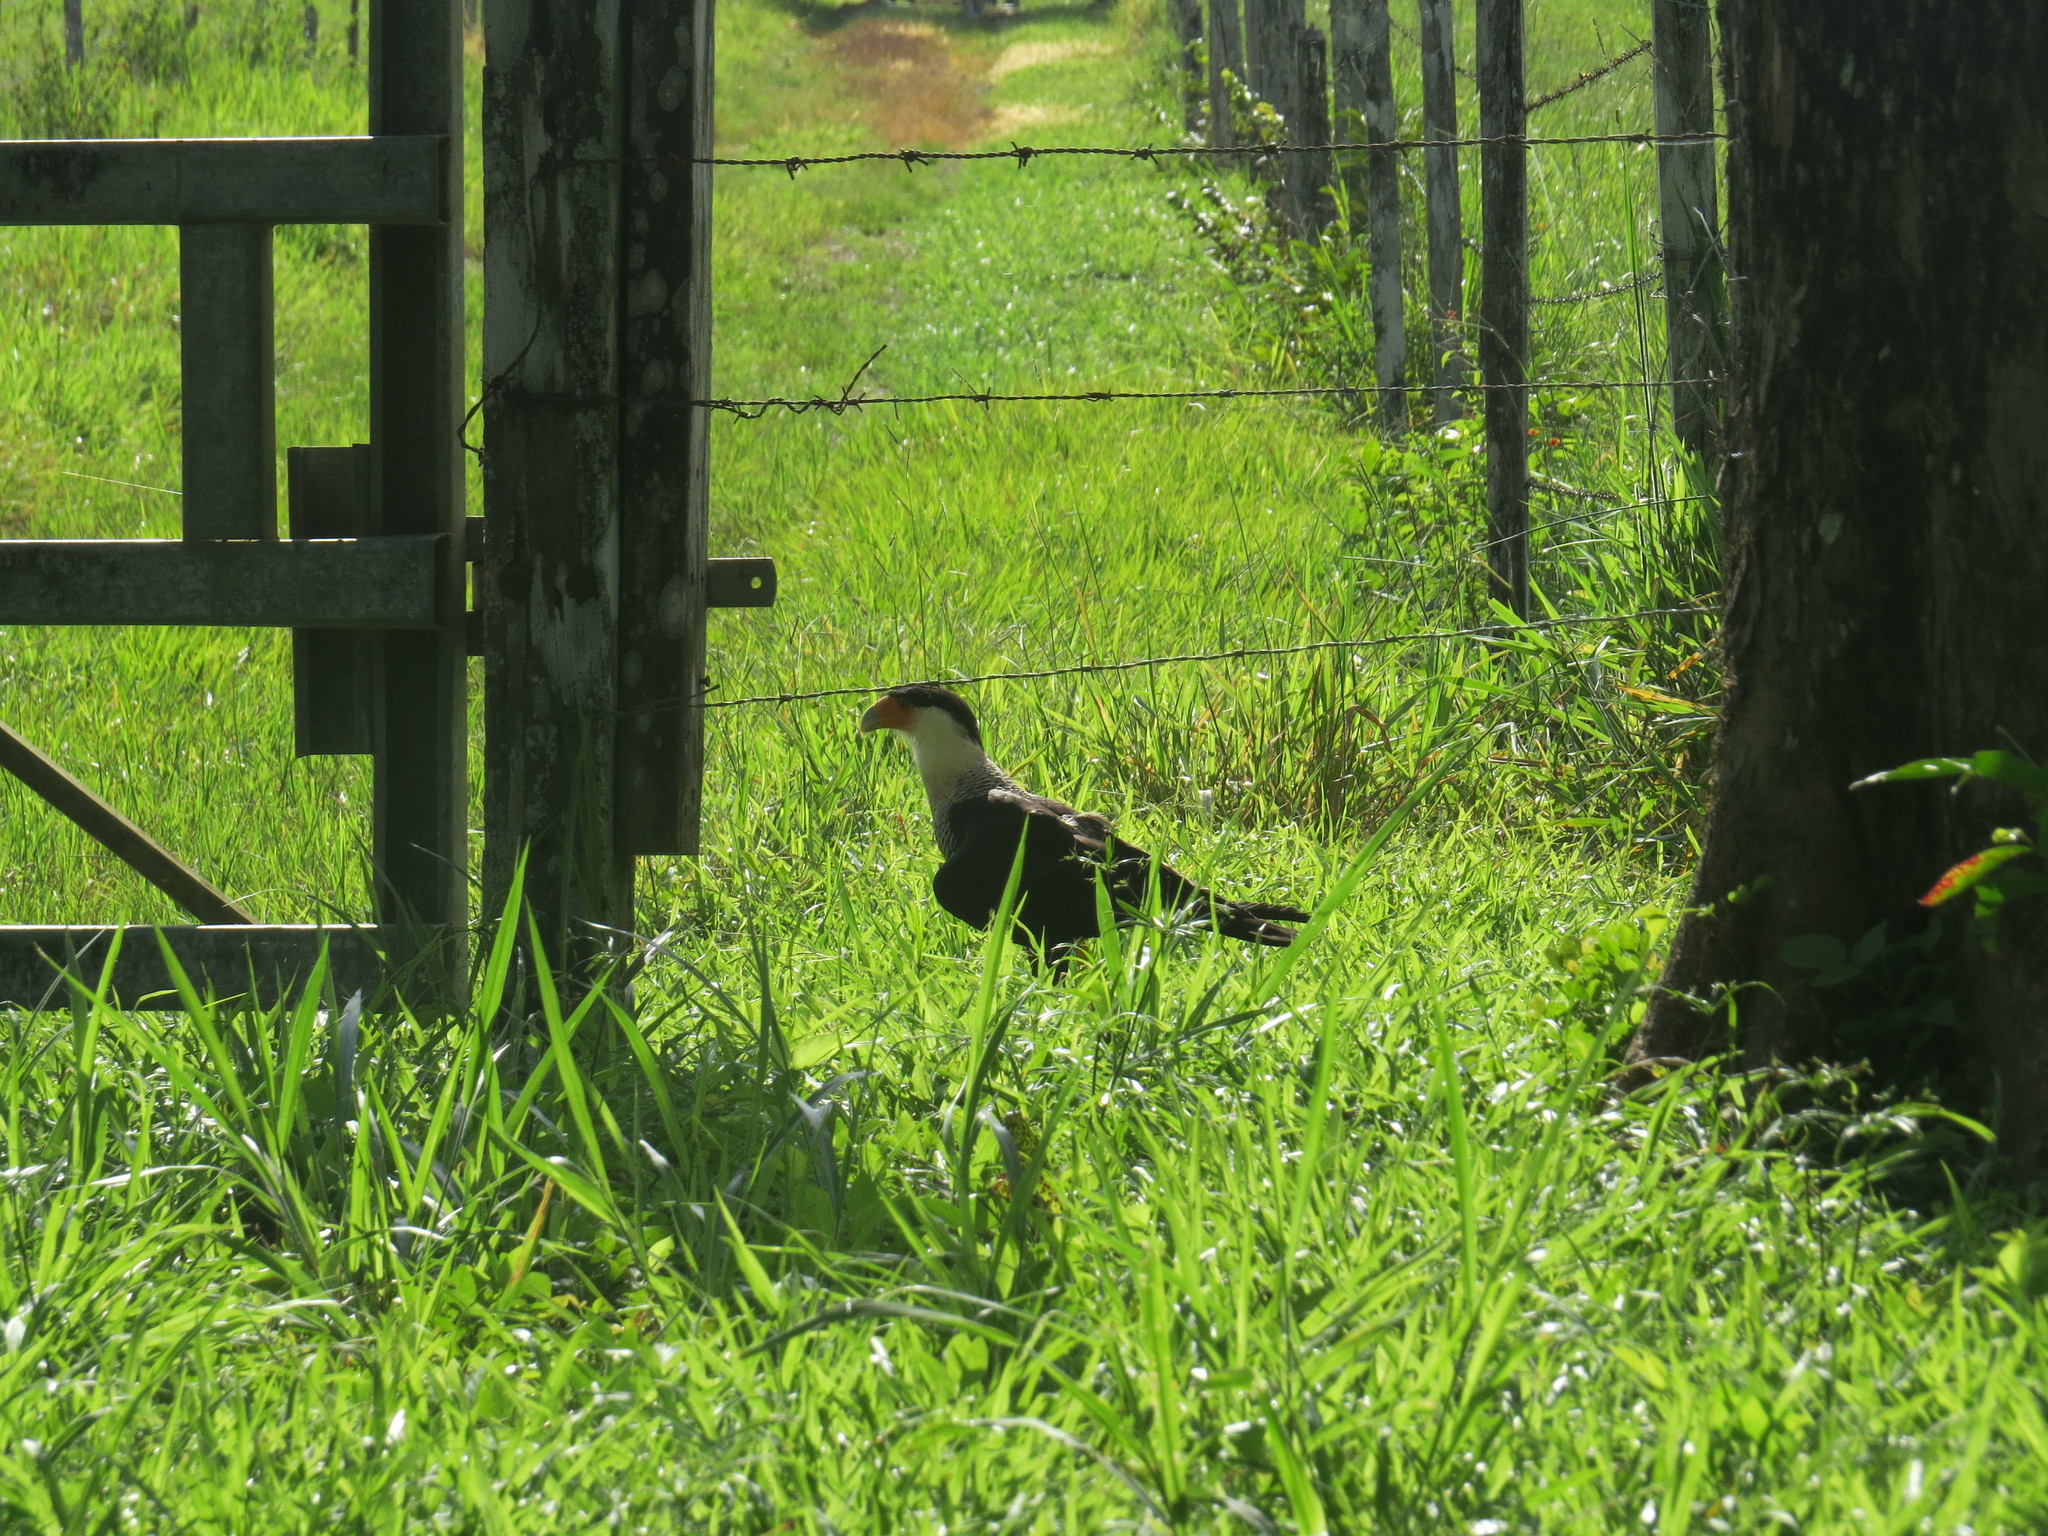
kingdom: Animalia
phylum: Chordata
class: Aves
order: Falconiformes
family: Falconidae
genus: Caracara
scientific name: Caracara plancus
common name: Southern caracara
